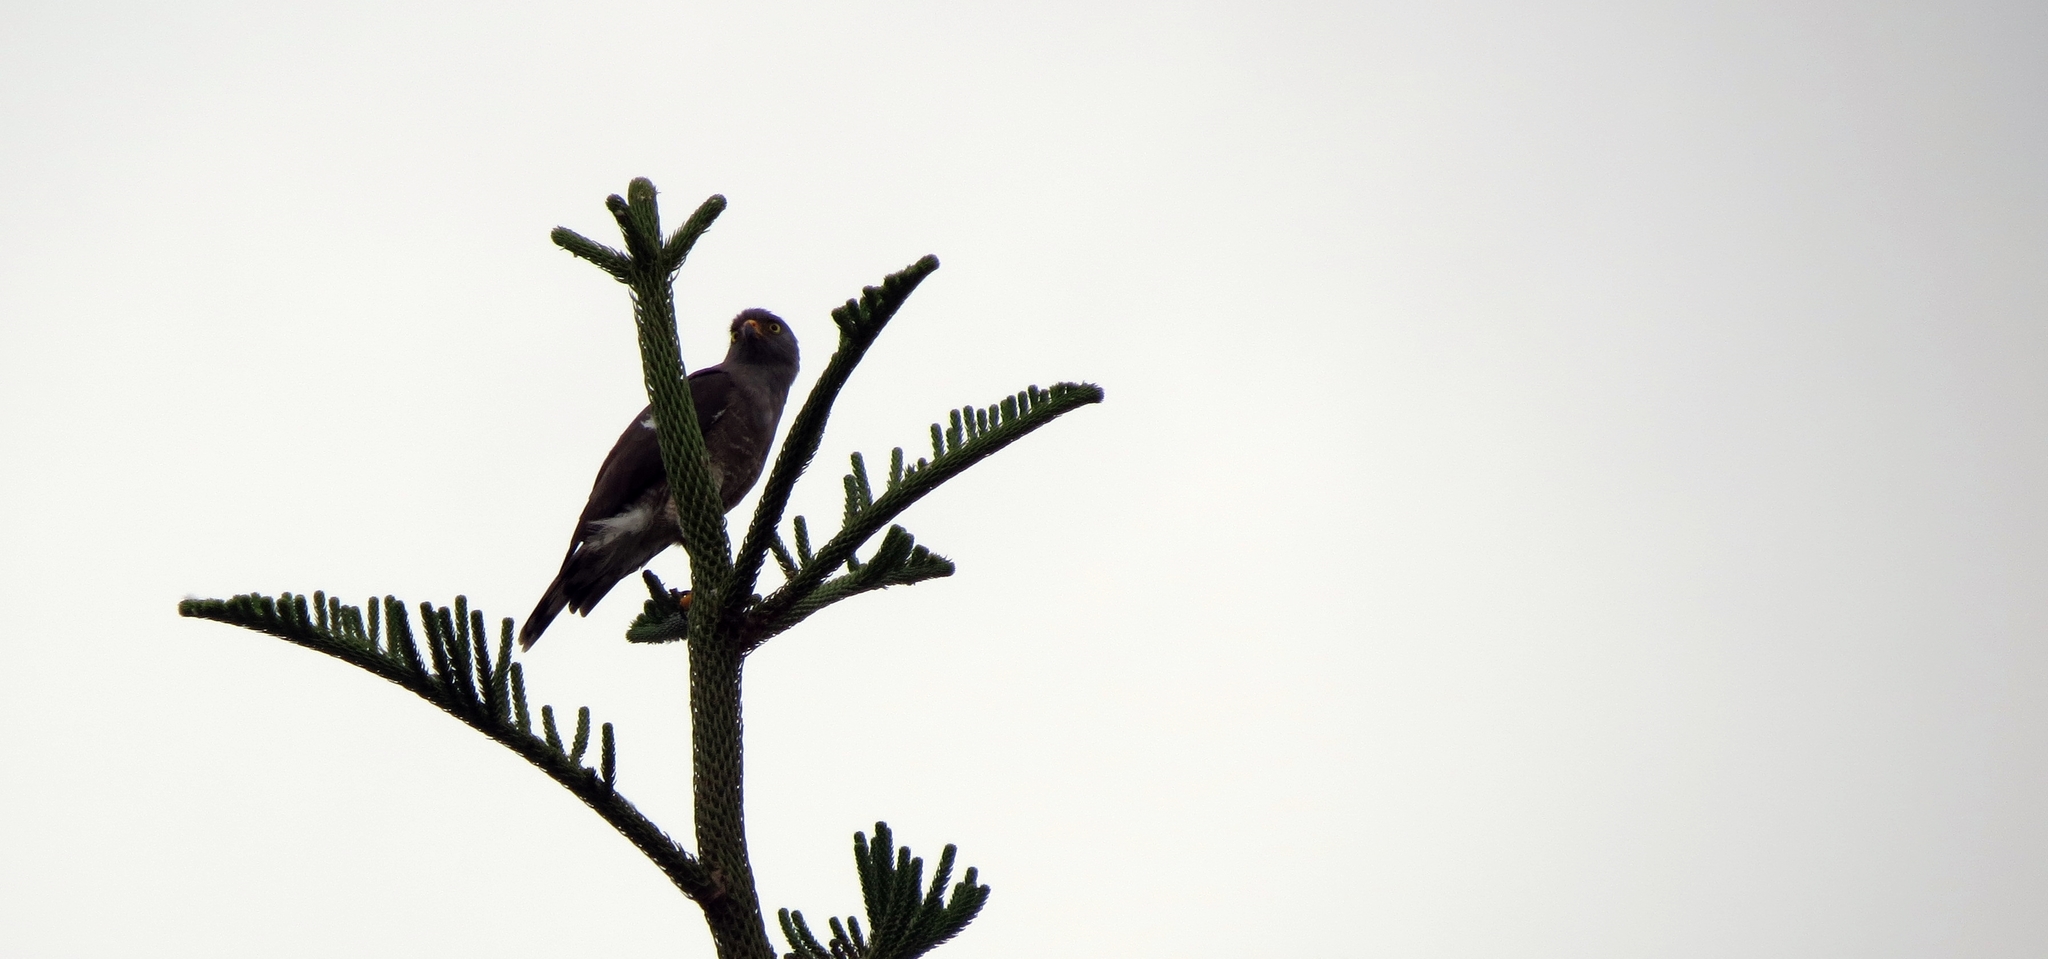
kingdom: Animalia
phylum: Chordata
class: Aves
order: Accipitriformes
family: Accipitridae
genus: Rupornis
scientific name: Rupornis magnirostris
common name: Roadside hawk
